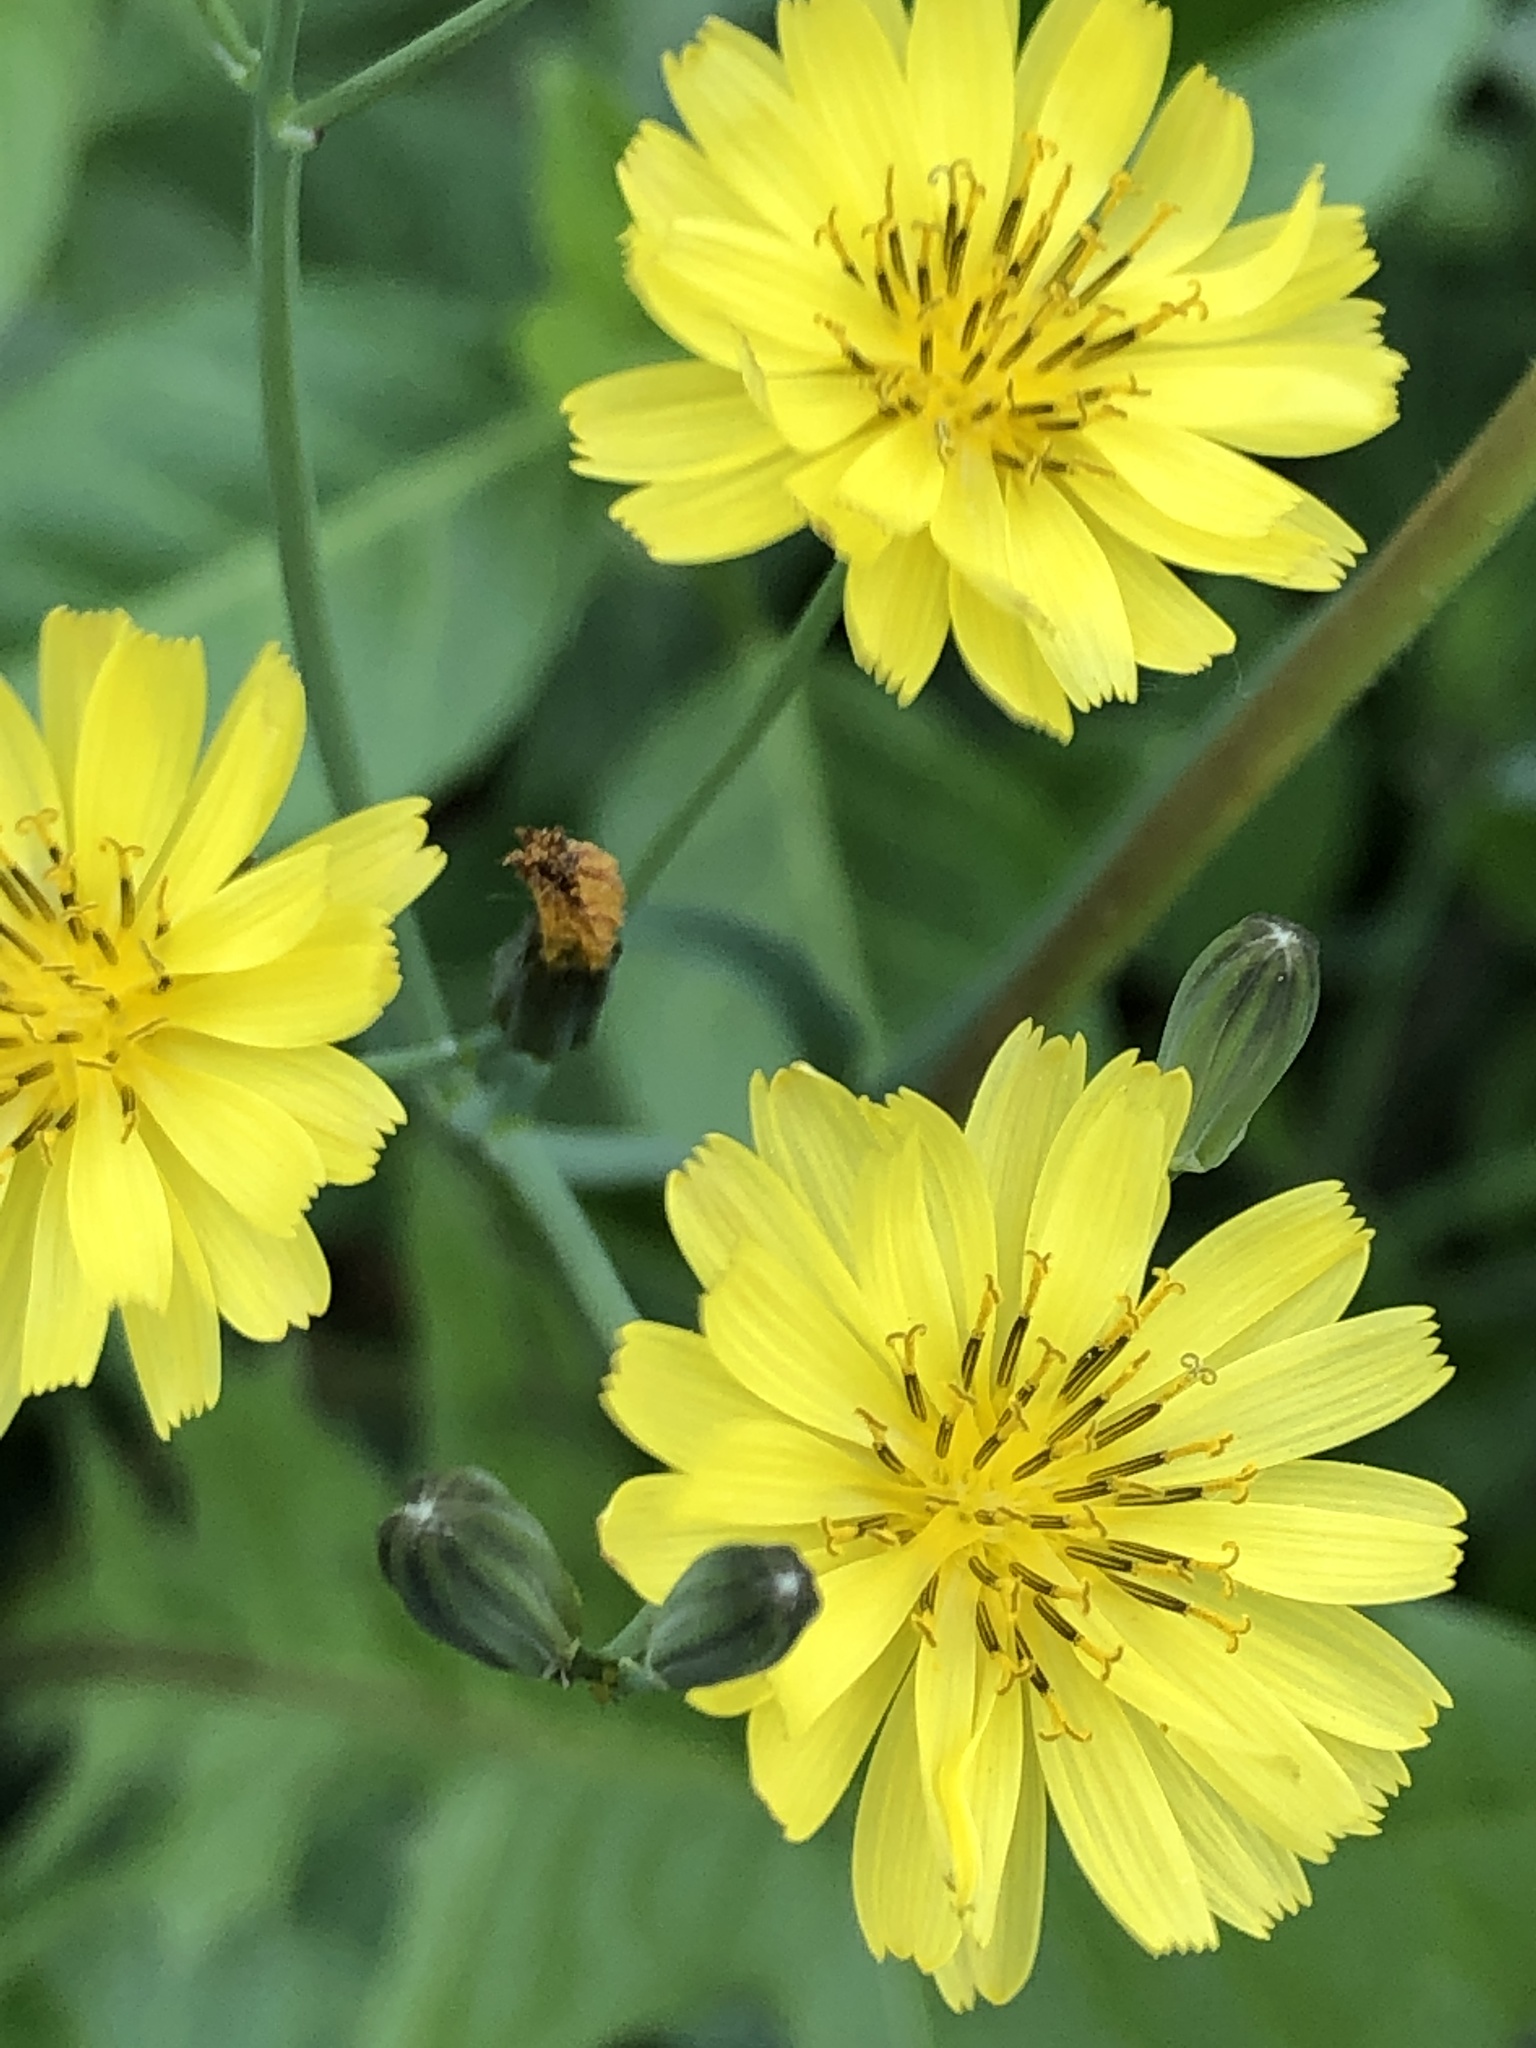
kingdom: Plantae
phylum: Tracheophyta
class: Magnoliopsida
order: Asterales
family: Asteraceae
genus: Ixeris
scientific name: Ixeris chinensis
